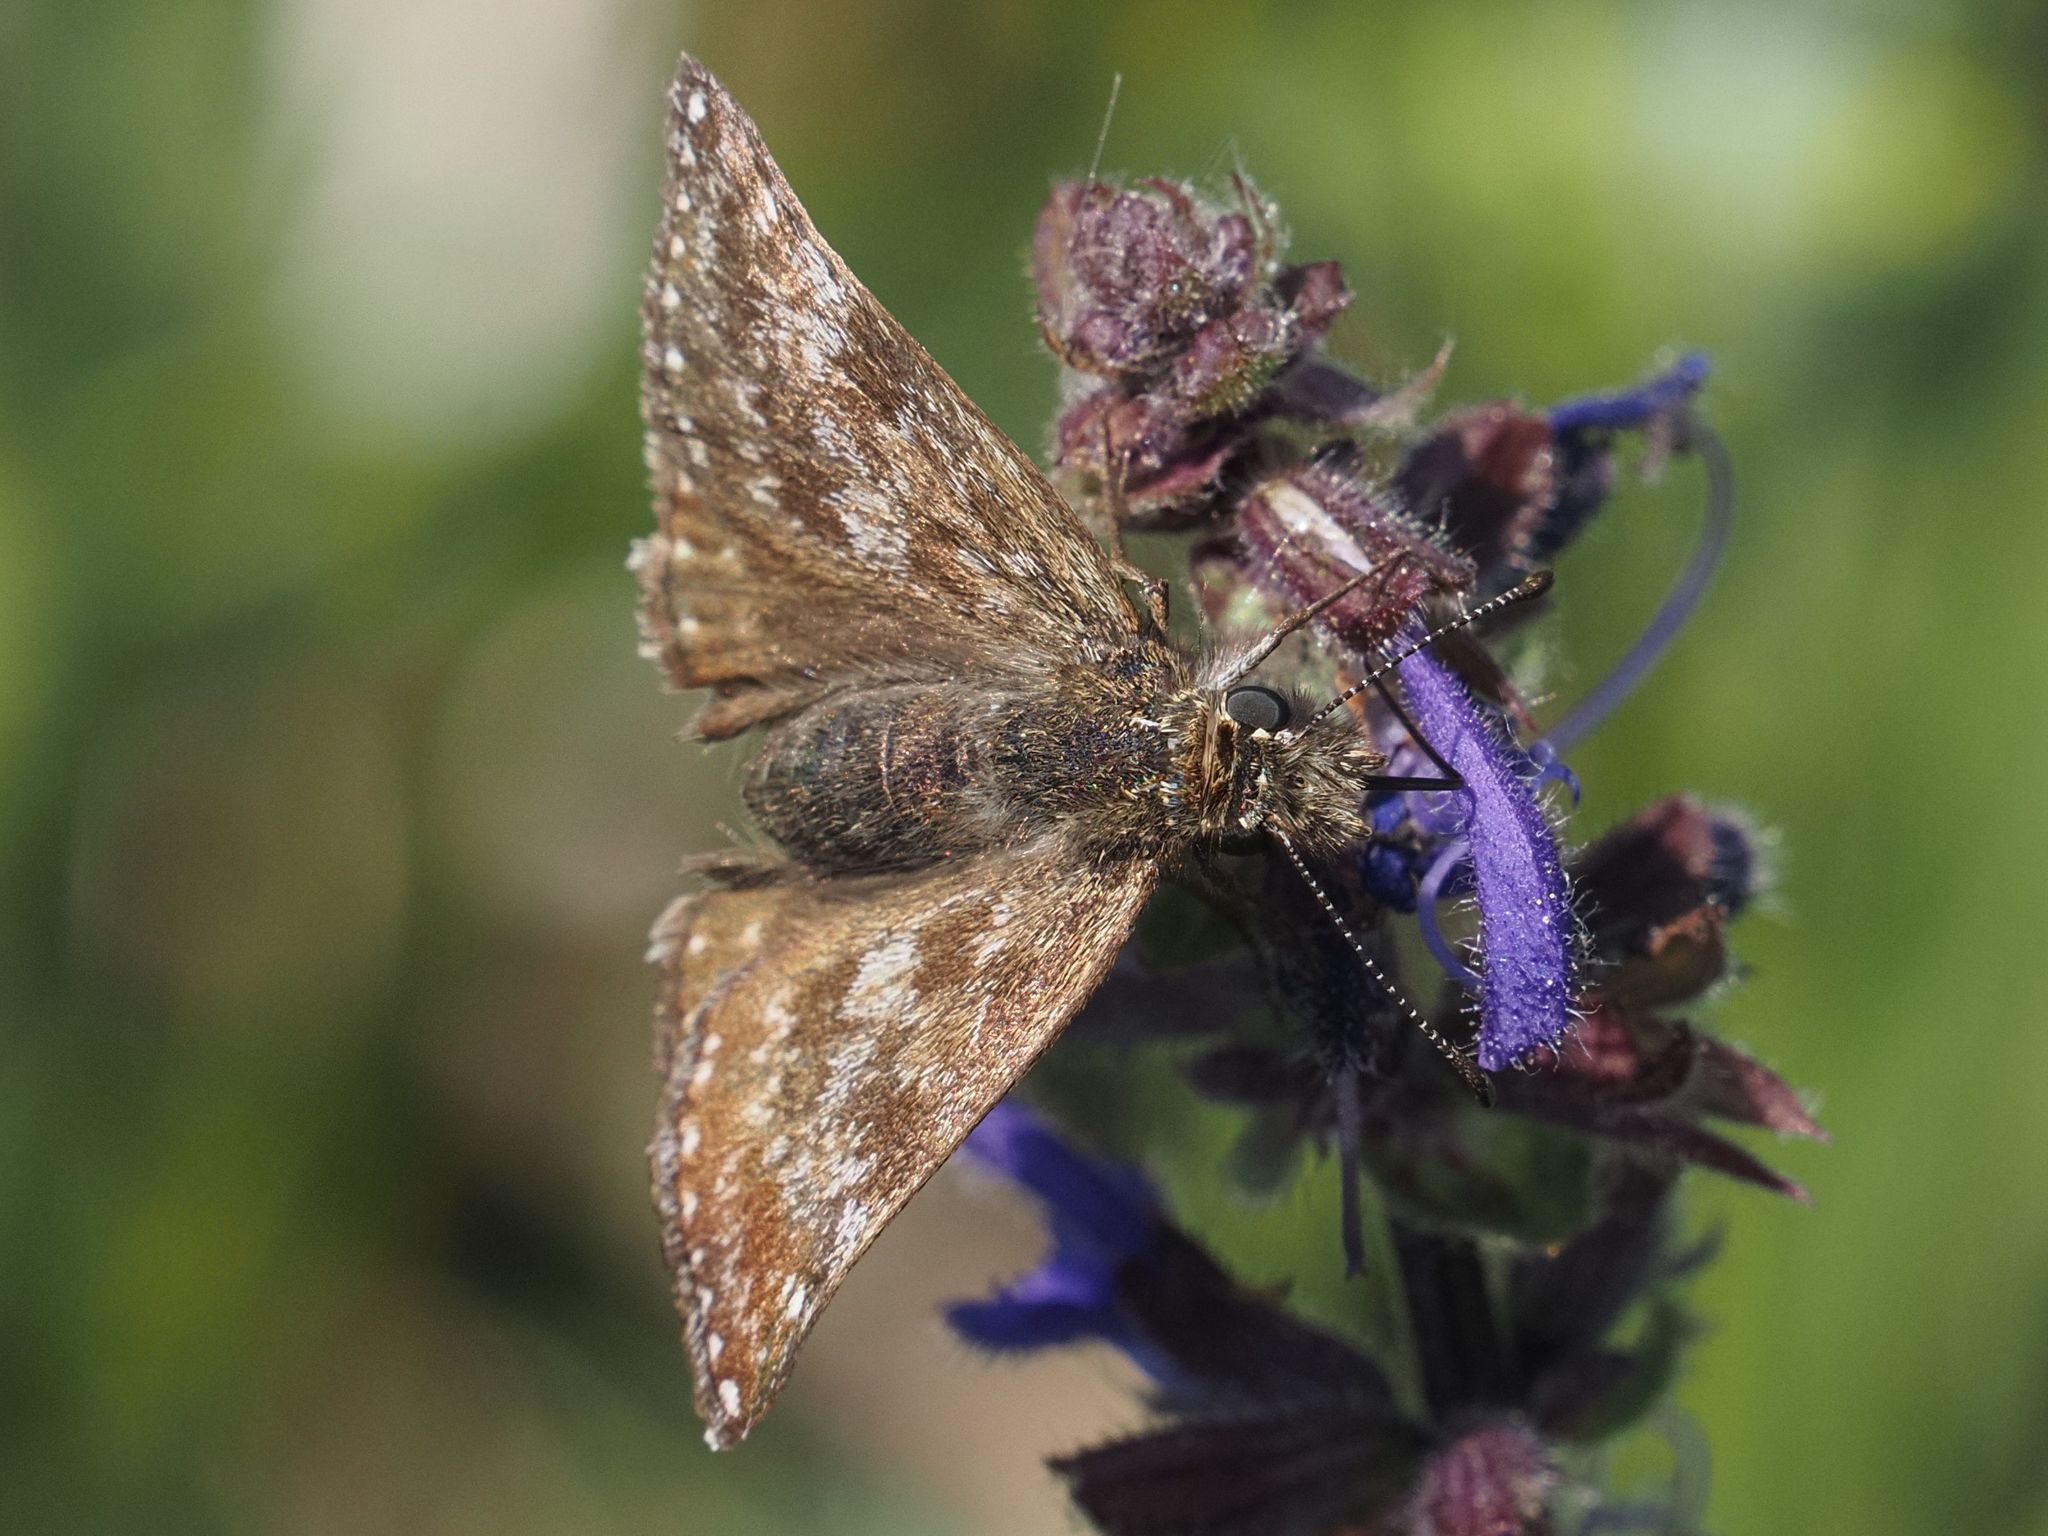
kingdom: Animalia
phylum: Arthropoda
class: Insecta
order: Lepidoptera
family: Hesperiidae
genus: Erynnis
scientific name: Erynnis tages
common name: Dingy skipper
